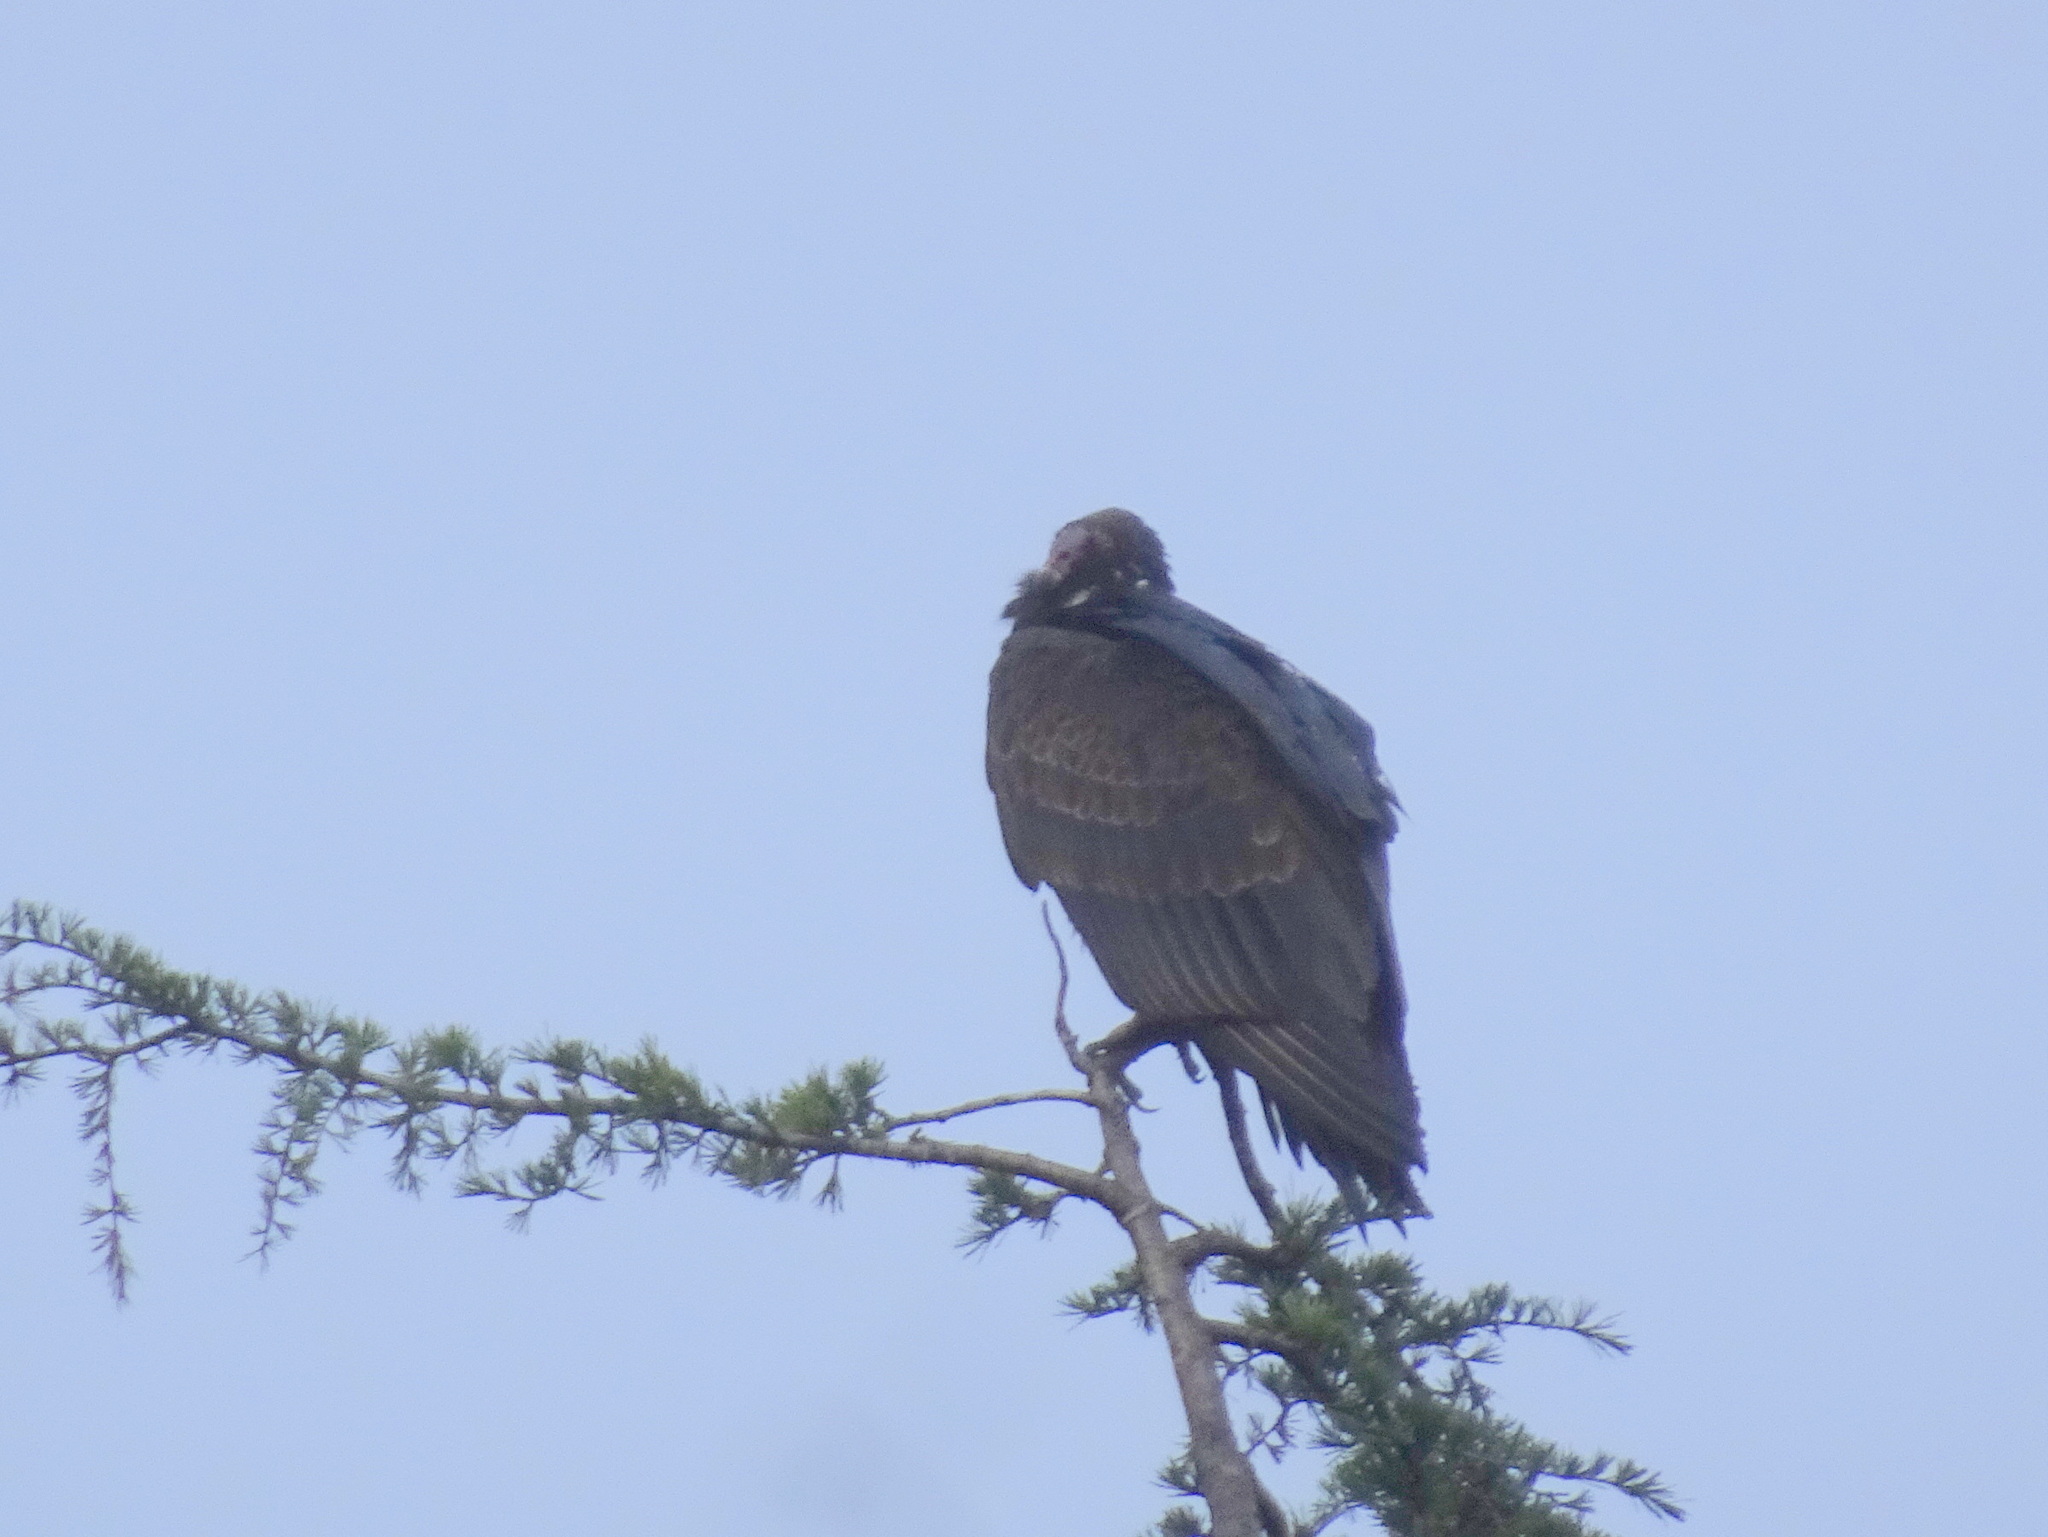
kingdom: Animalia
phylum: Chordata
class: Aves
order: Accipitriformes
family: Cathartidae
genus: Cathartes
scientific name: Cathartes aura
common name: Turkey vulture
